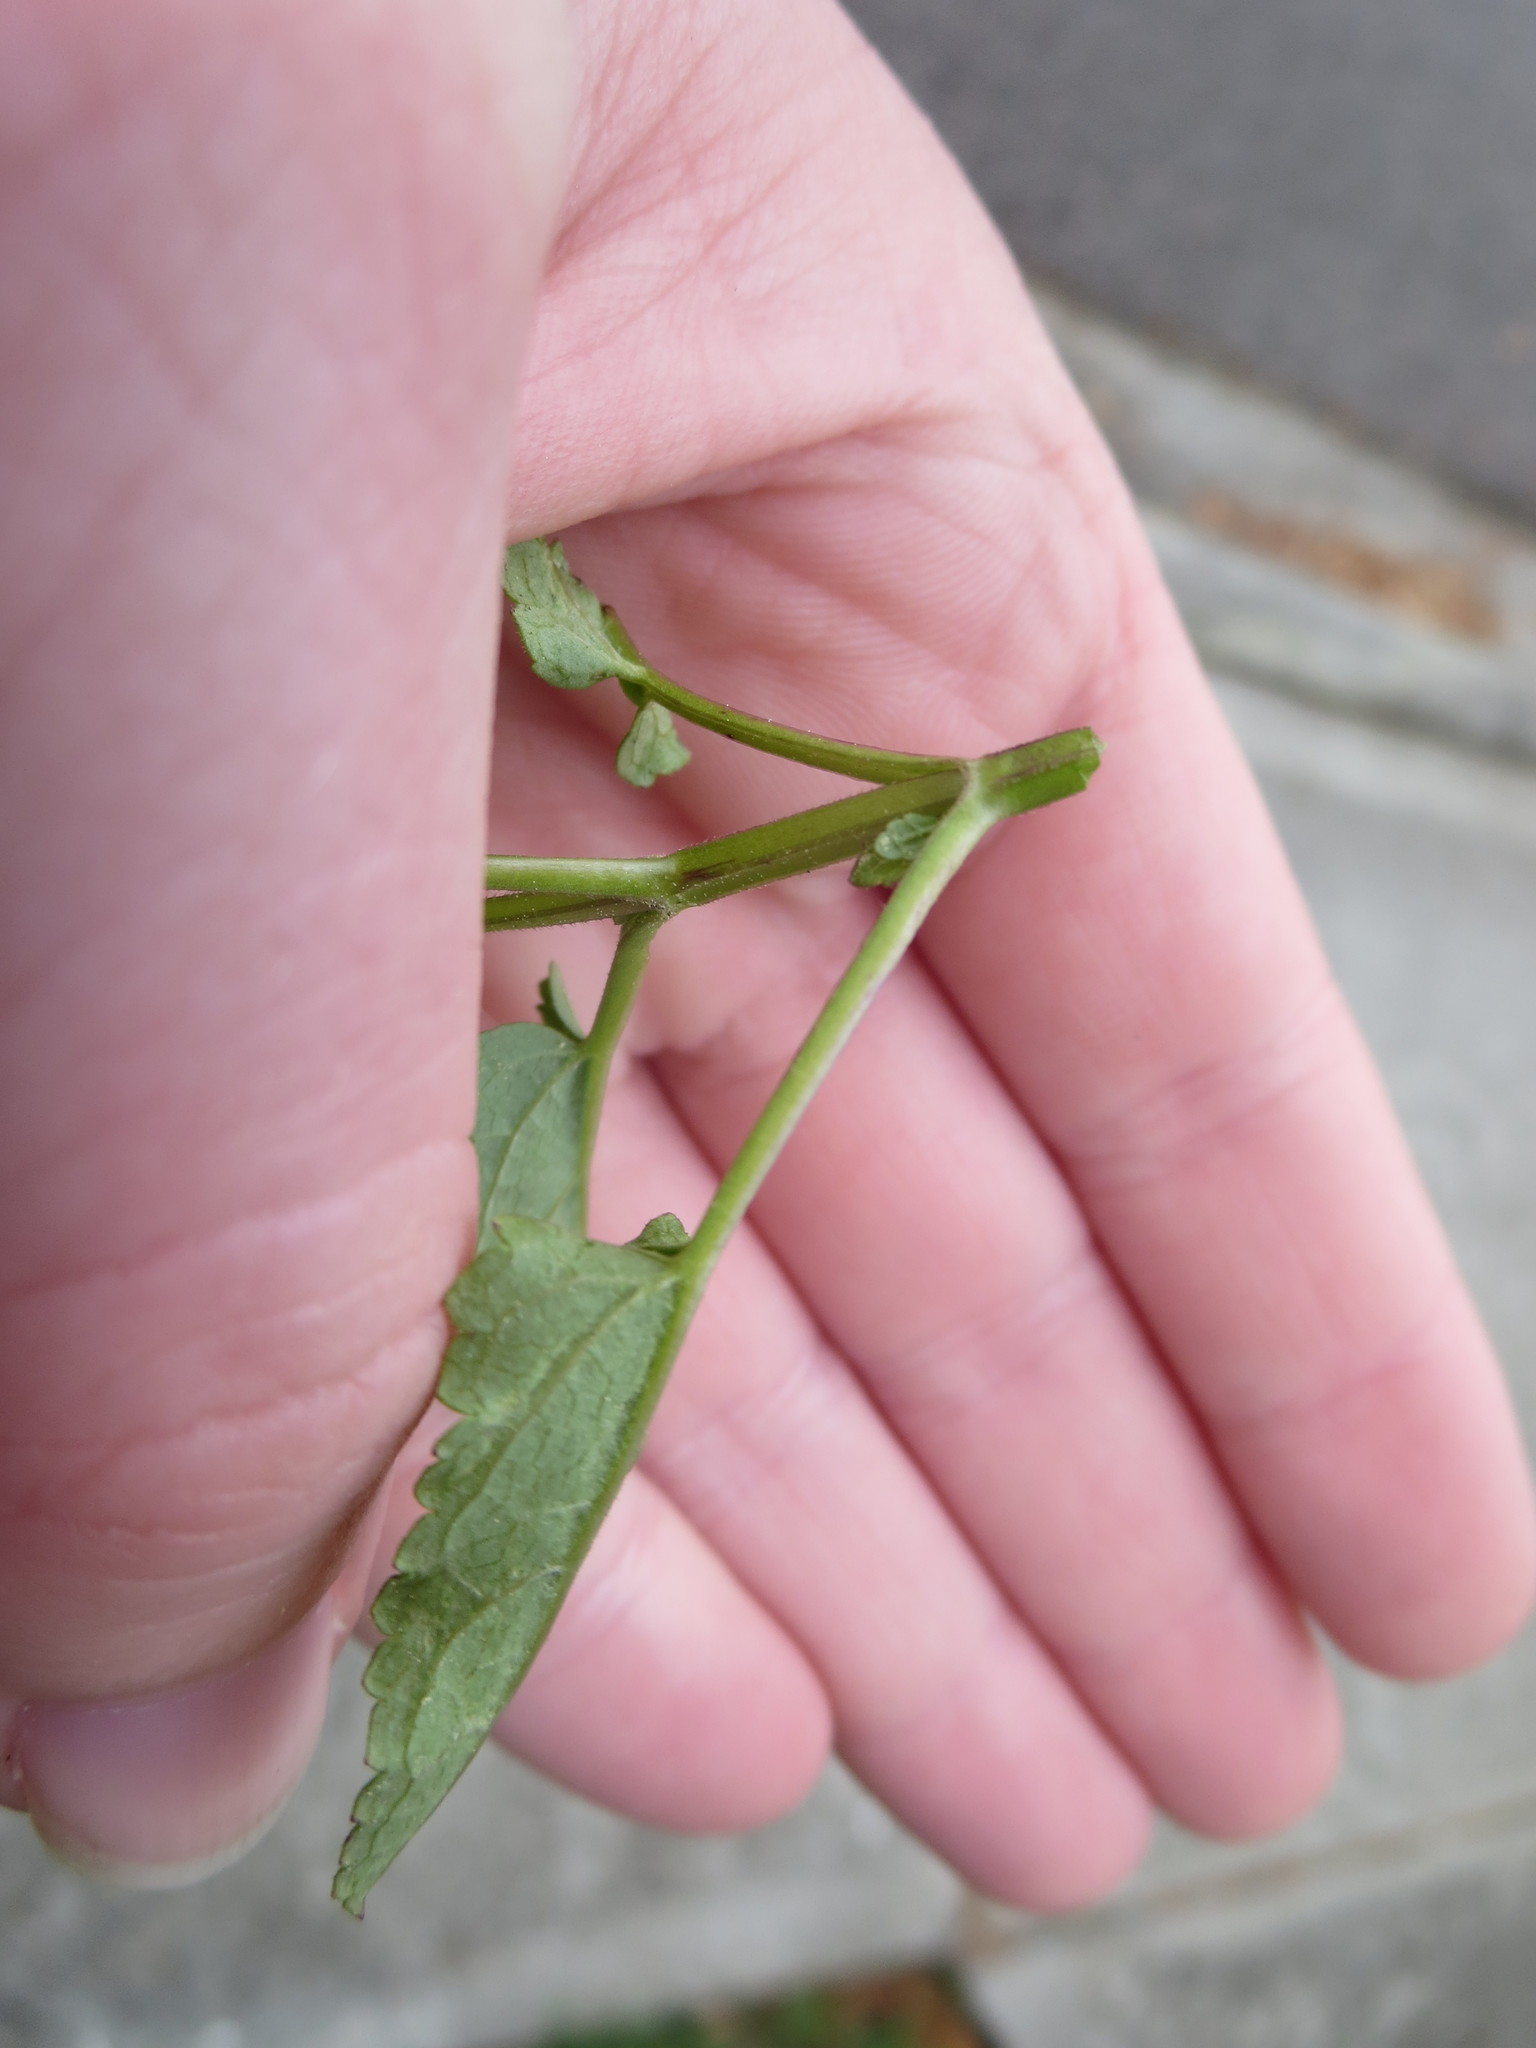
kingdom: Plantae
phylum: Tracheophyta
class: Magnoliopsida
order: Lamiales
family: Lamiaceae
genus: Stachys
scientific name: Stachys floridana
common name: Florida betony
